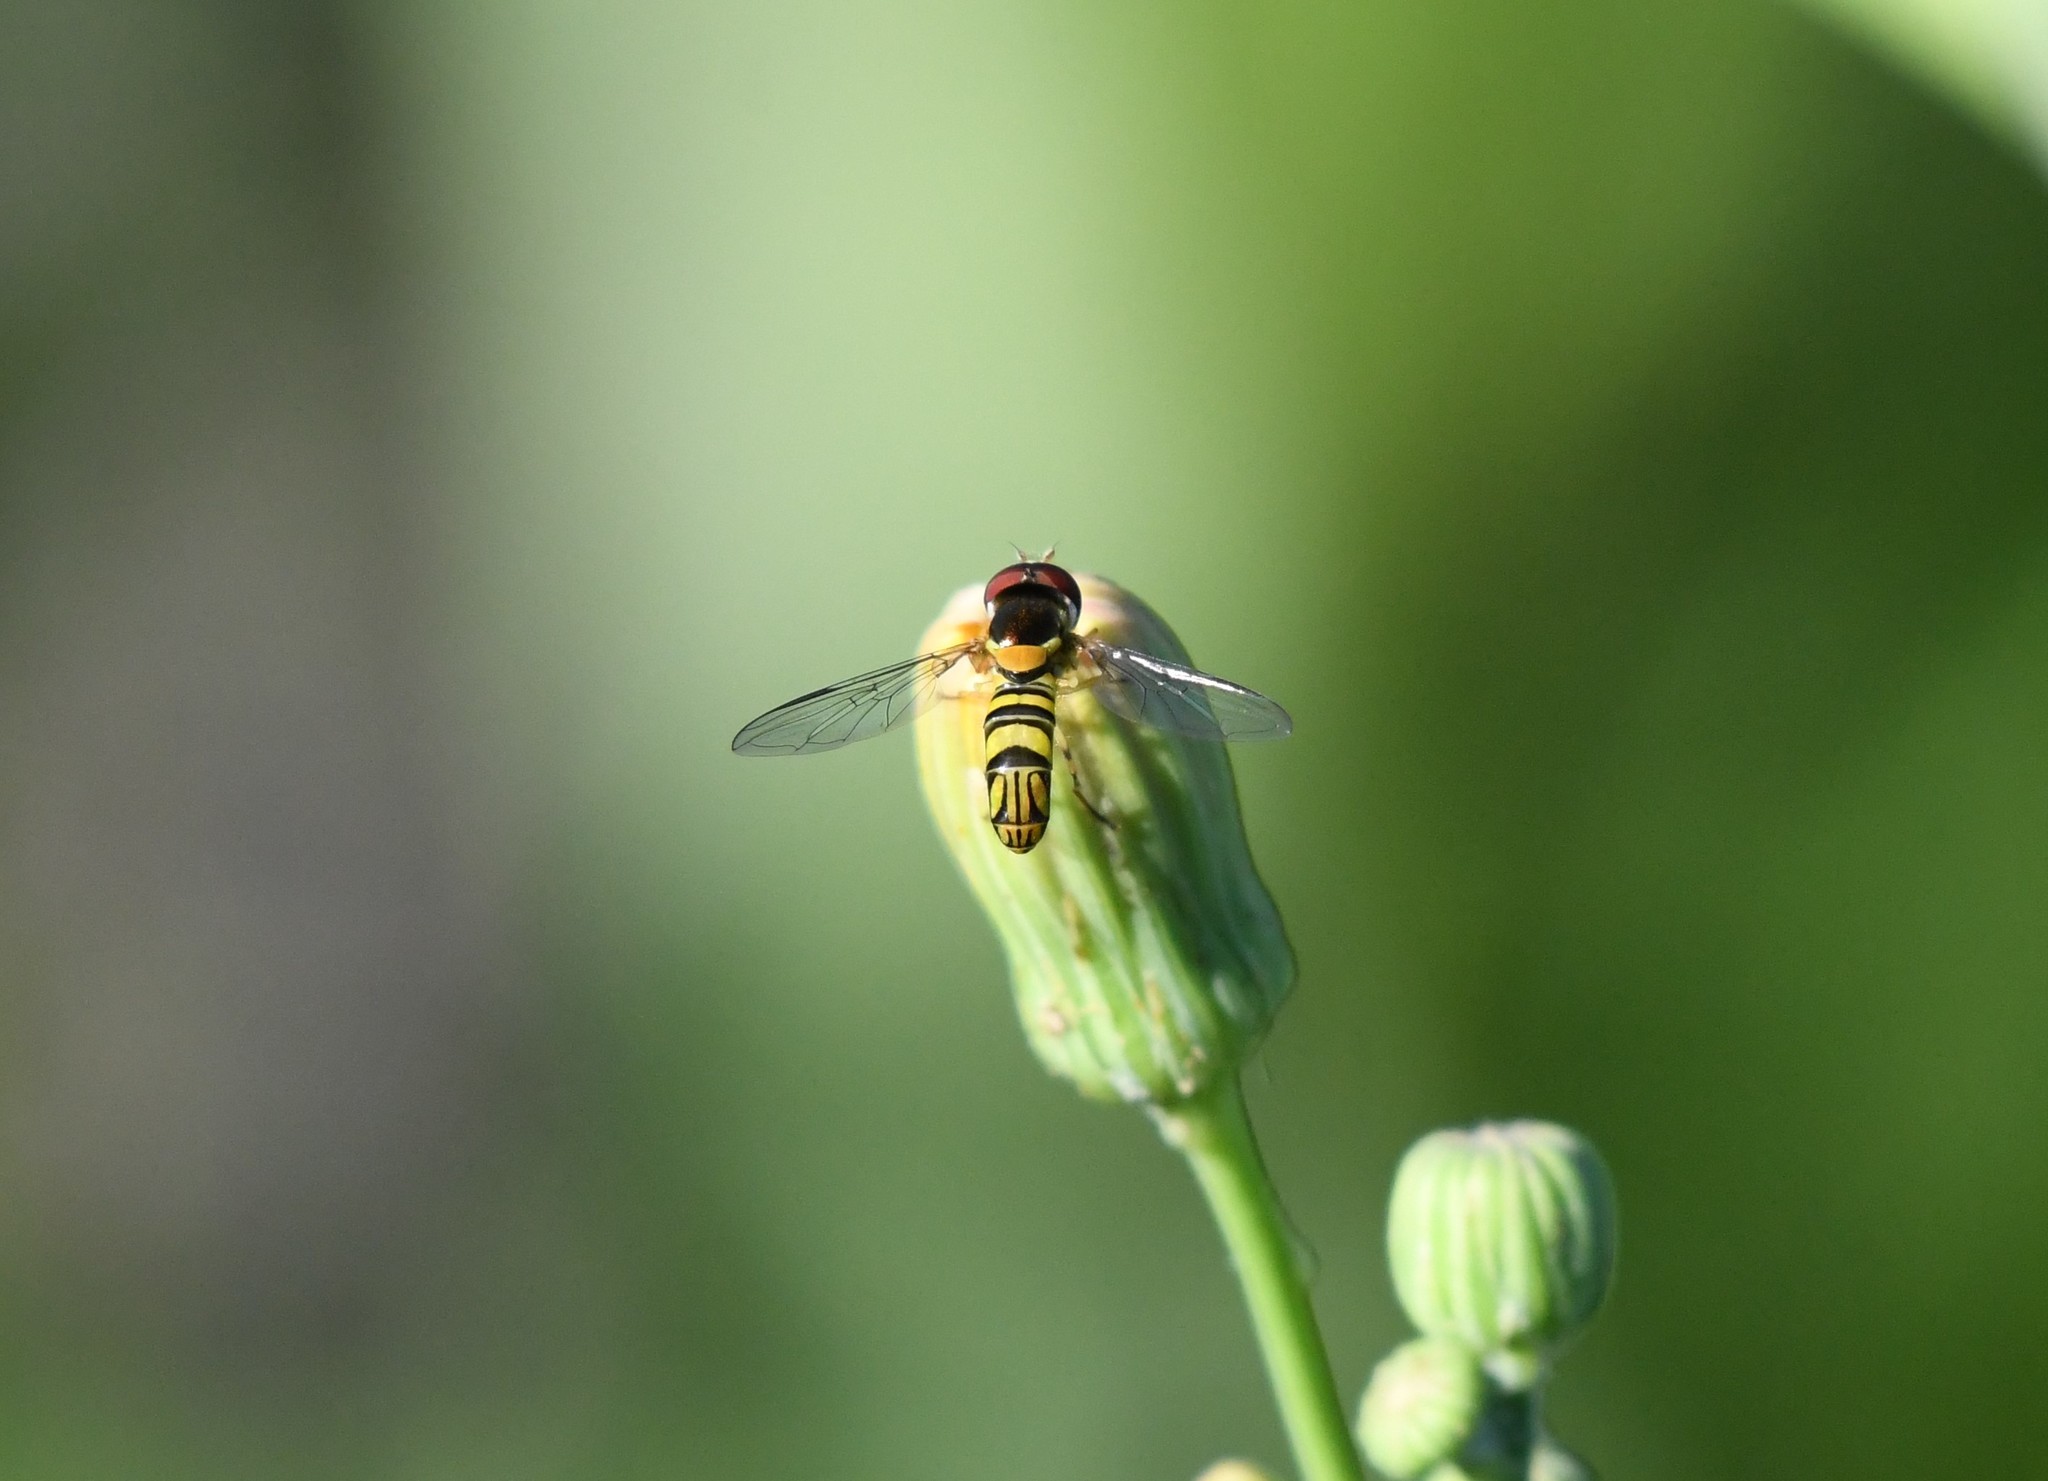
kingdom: Animalia
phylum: Arthropoda
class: Insecta
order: Diptera
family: Syrphidae
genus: Allograpta
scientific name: Allograpta obliqua
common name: Common oblique syrphid
